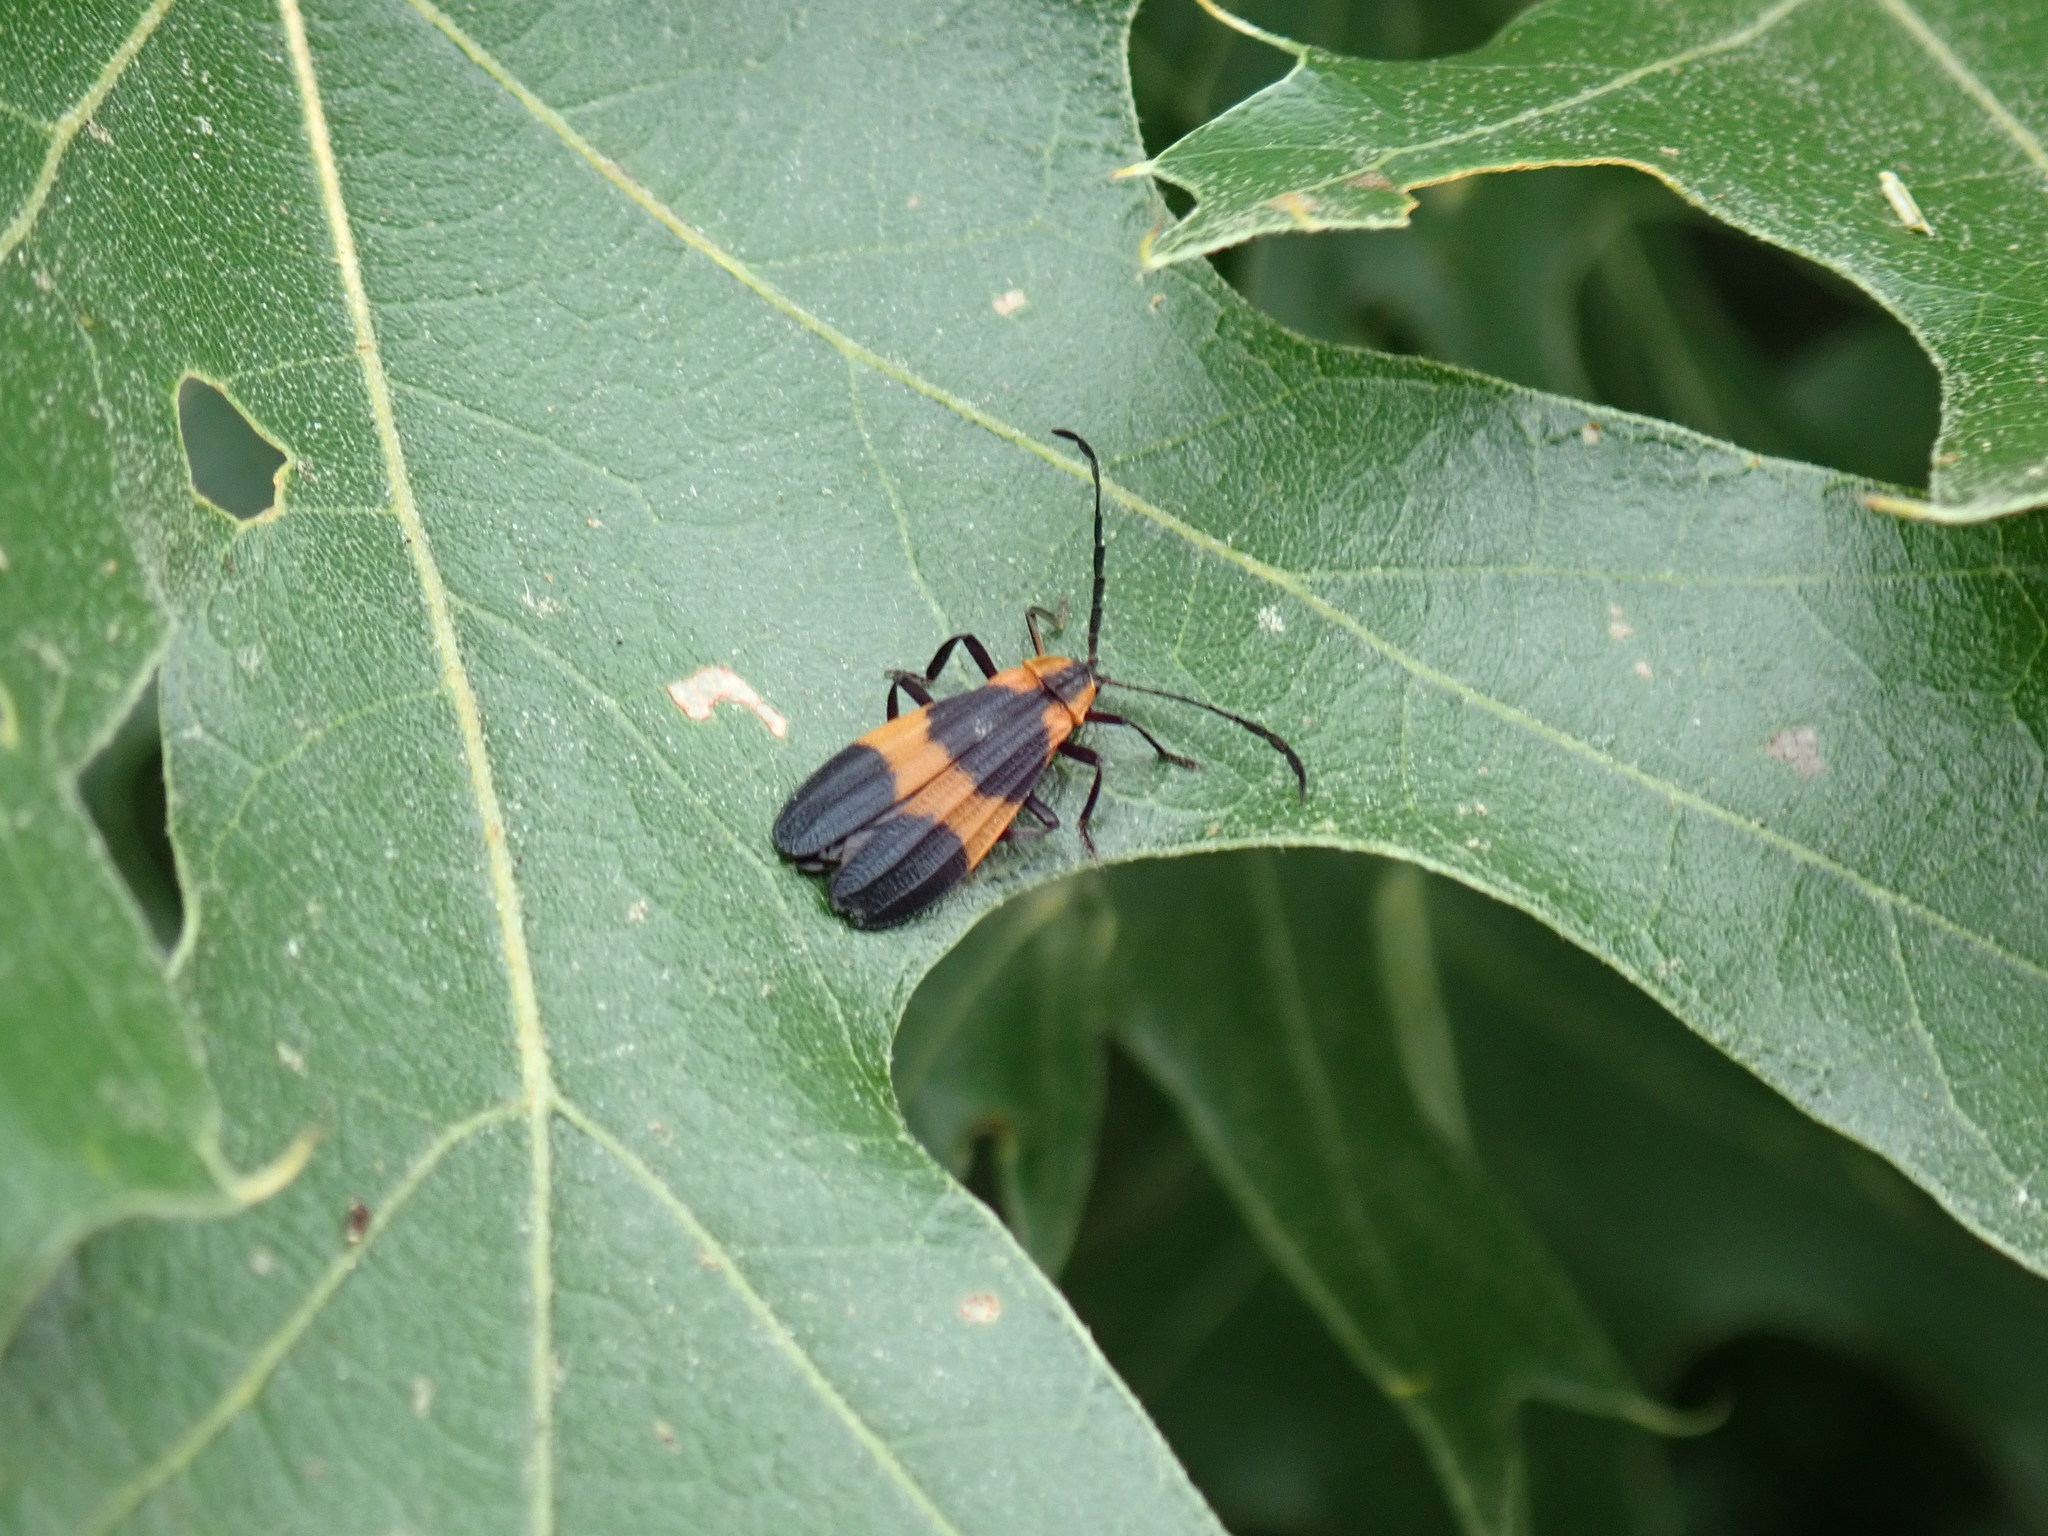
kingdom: Animalia
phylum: Arthropoda
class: Insecta
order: Coleoptera
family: Lycidae
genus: Calopteron
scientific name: Calopteron reticulatum
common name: Banded net-winged beetle
